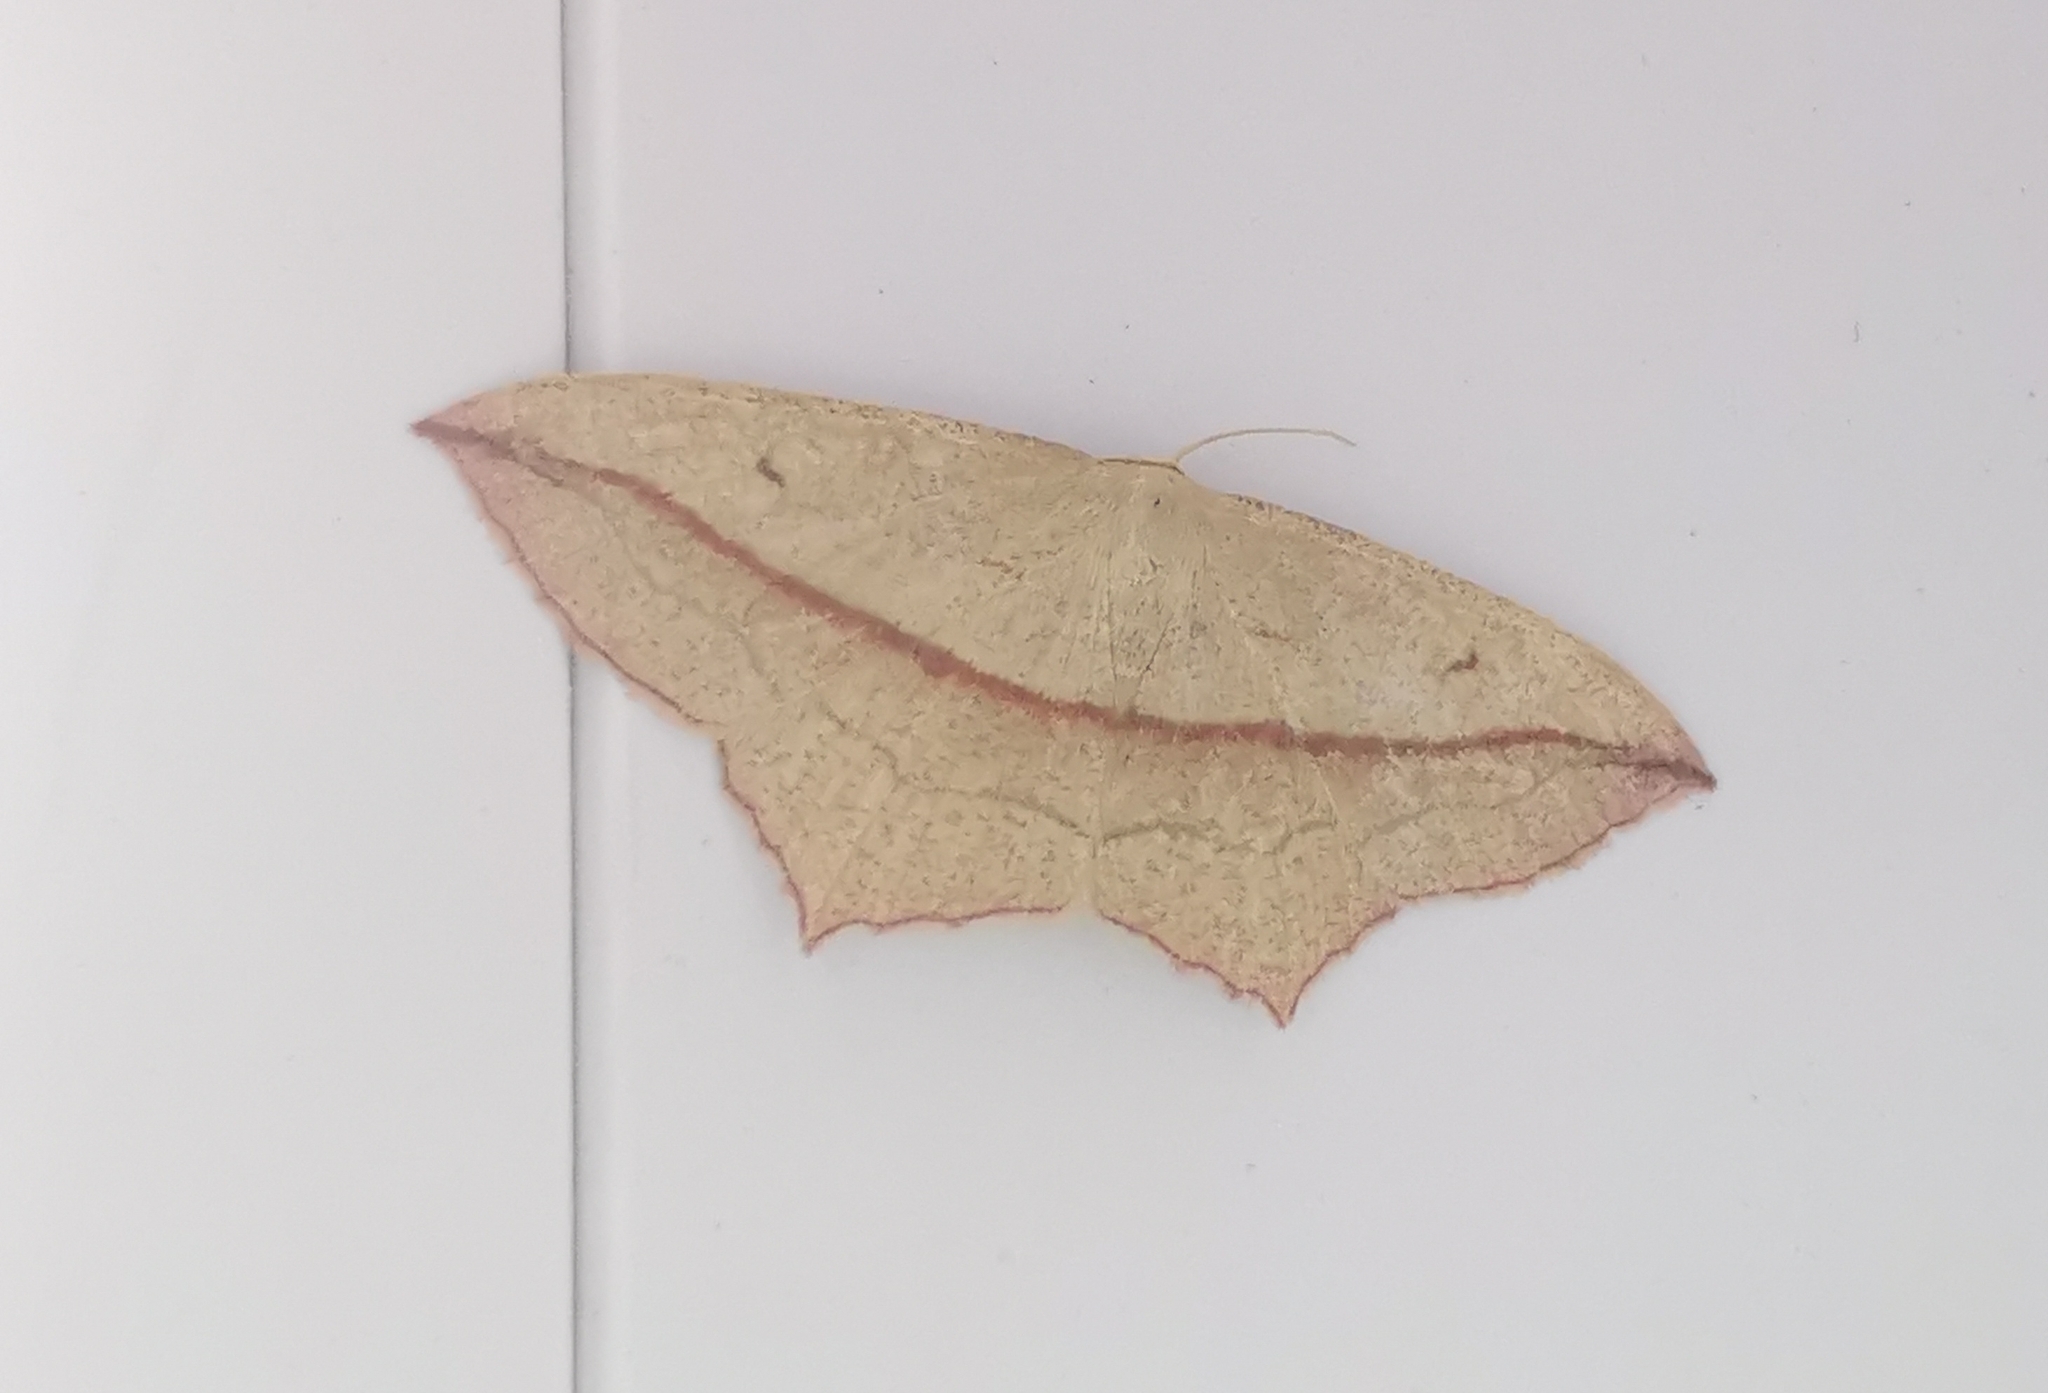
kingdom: Animalia
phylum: Arthropoda
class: Insecta
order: Lepidoptera
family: Geometridae
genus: Timandra
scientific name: Timandra comae
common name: Blood-vein
